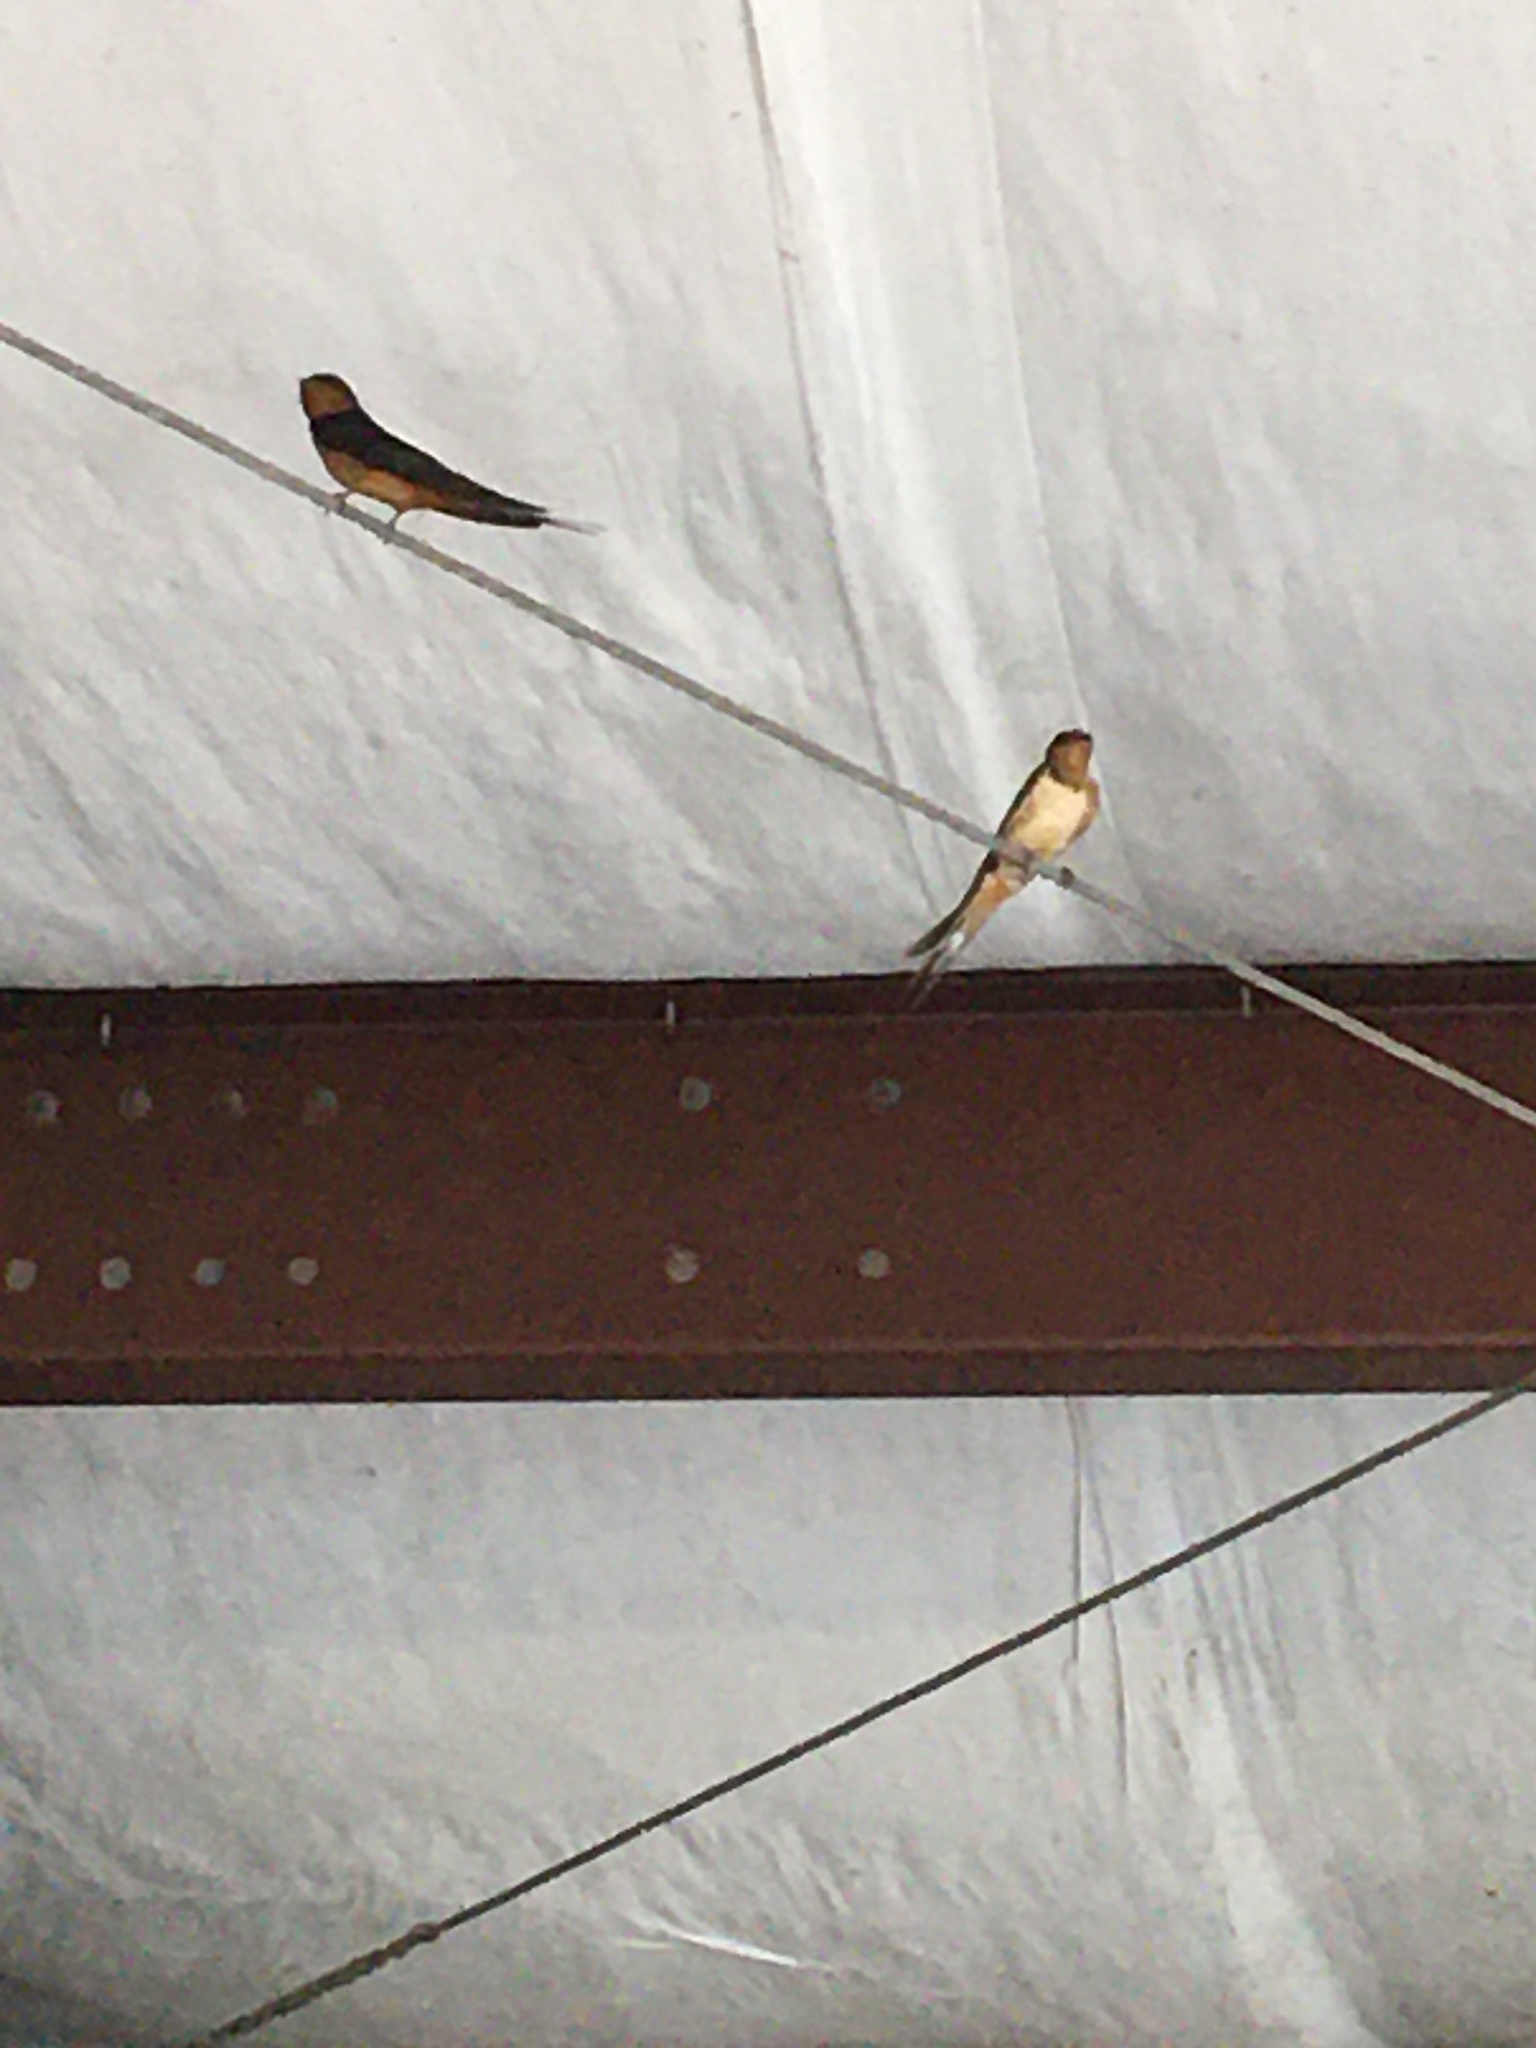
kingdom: Animalia
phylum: Chordata
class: Aves
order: Passeriformes
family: Hirundinidae
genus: Hirundo
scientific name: Hirundo rustica
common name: Barn swallow
